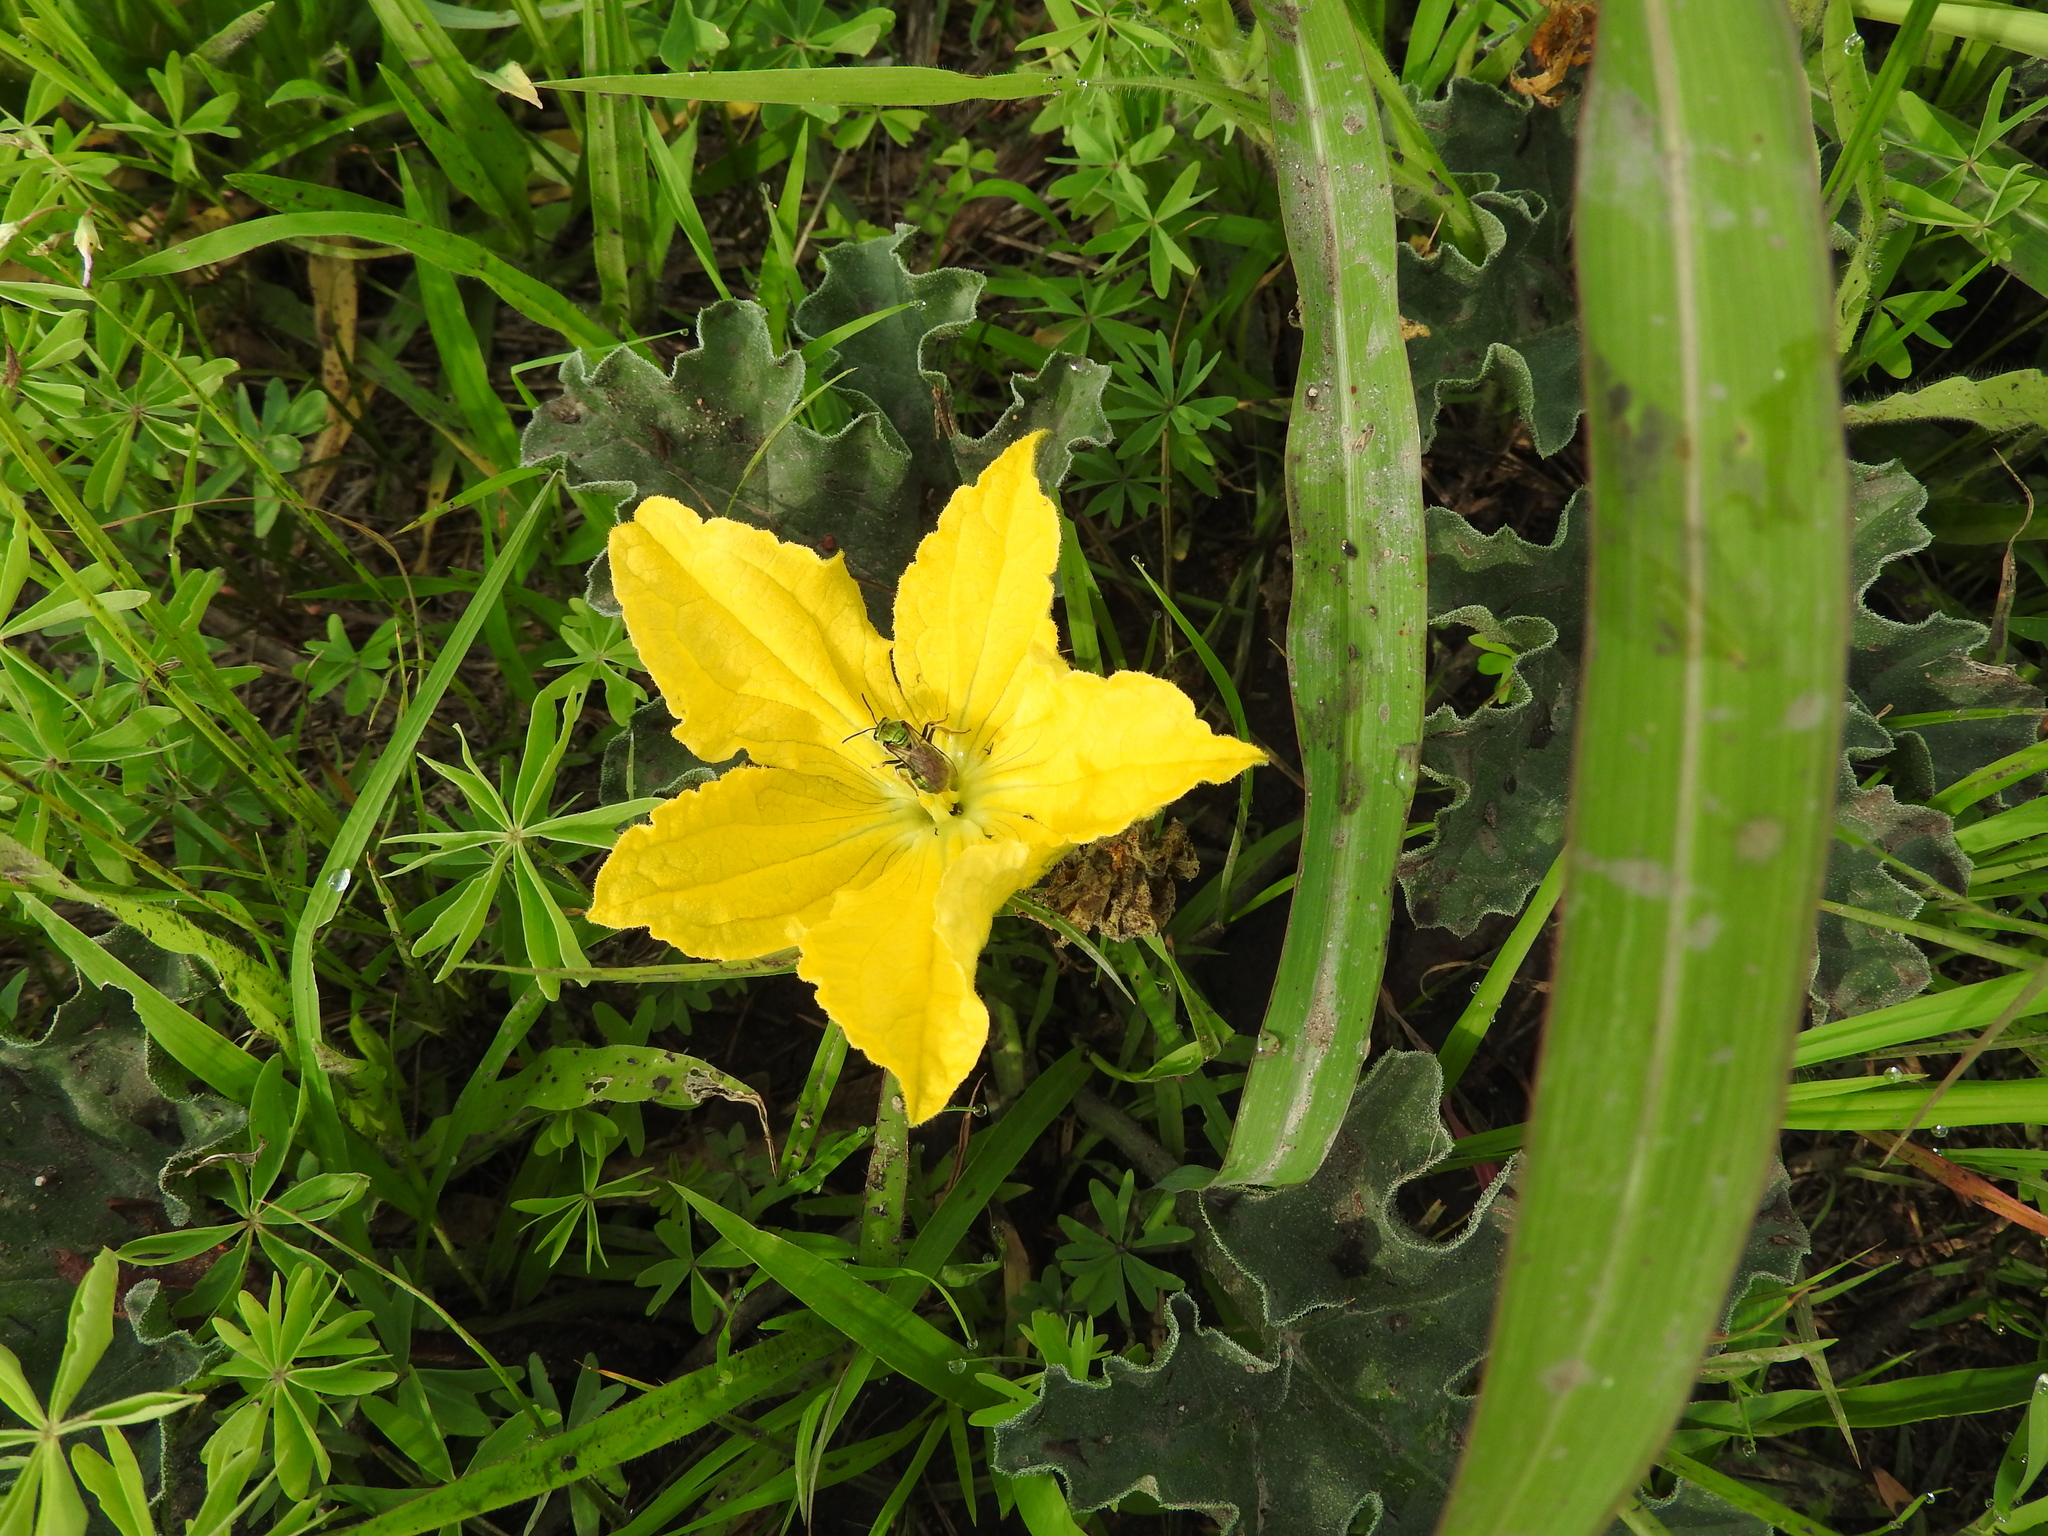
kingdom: Plantae
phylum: Tracheophyta
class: Magnoliopsida
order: Cucurbitales
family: Cucurbitaceae
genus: Apodanthera
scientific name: Apodanthera aspera
